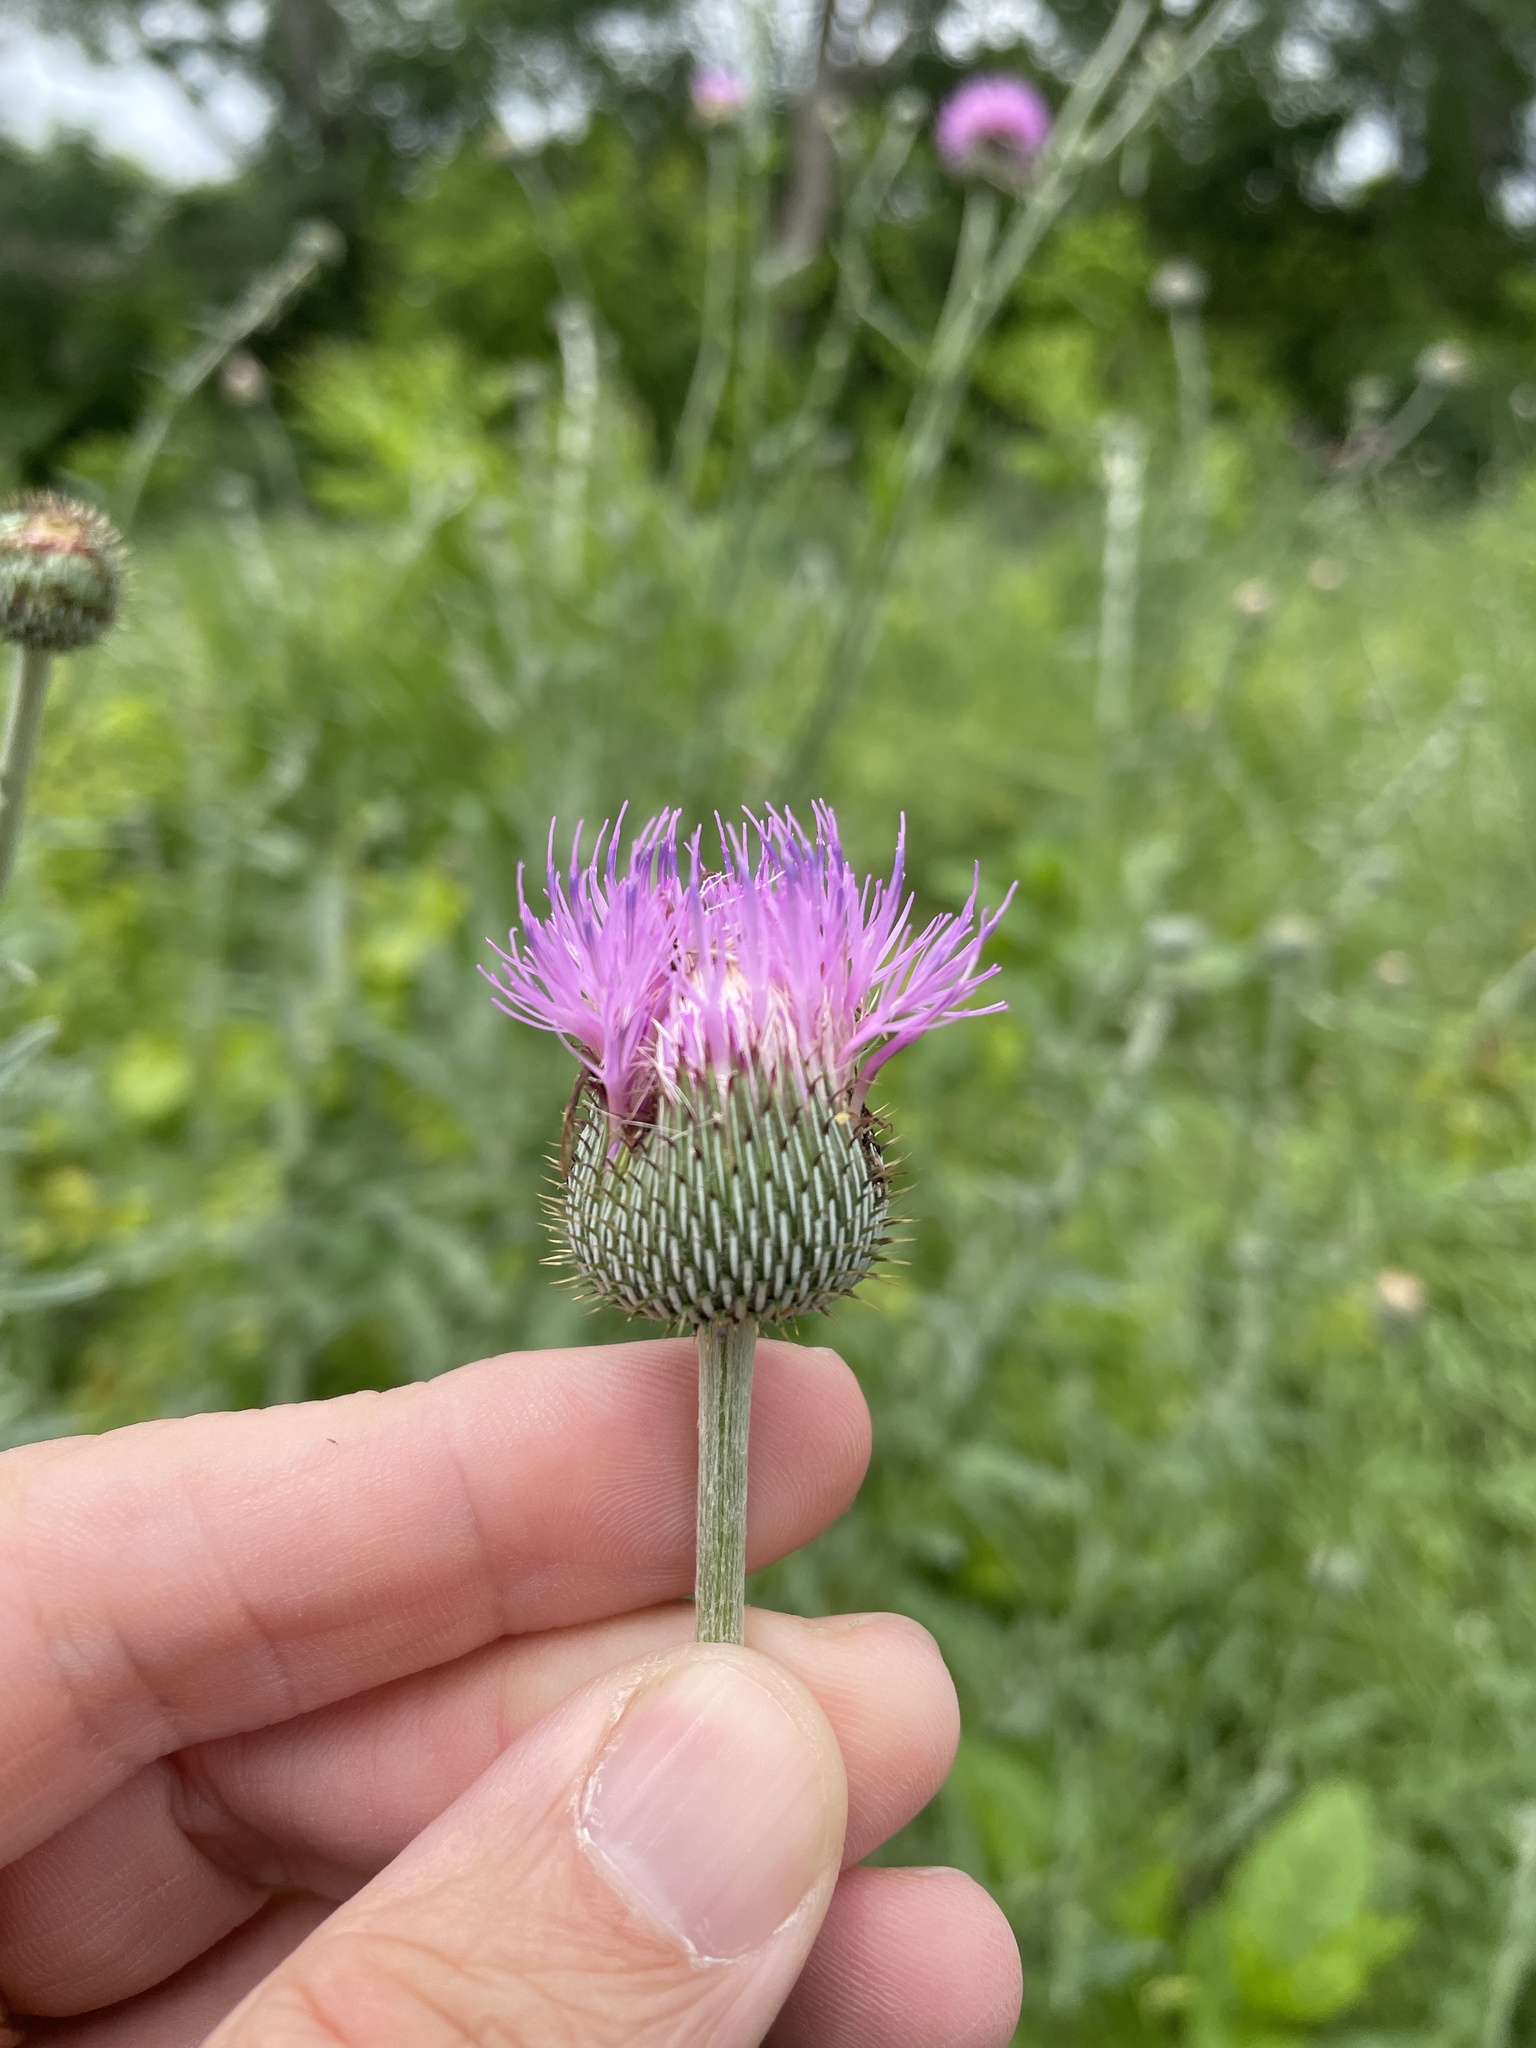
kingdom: Plantae
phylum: Tracheophyta
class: Magnoliopsida
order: Asterales
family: Asteraceae
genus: Cirsium
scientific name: Cirsium texanum
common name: Texas purple thistle
